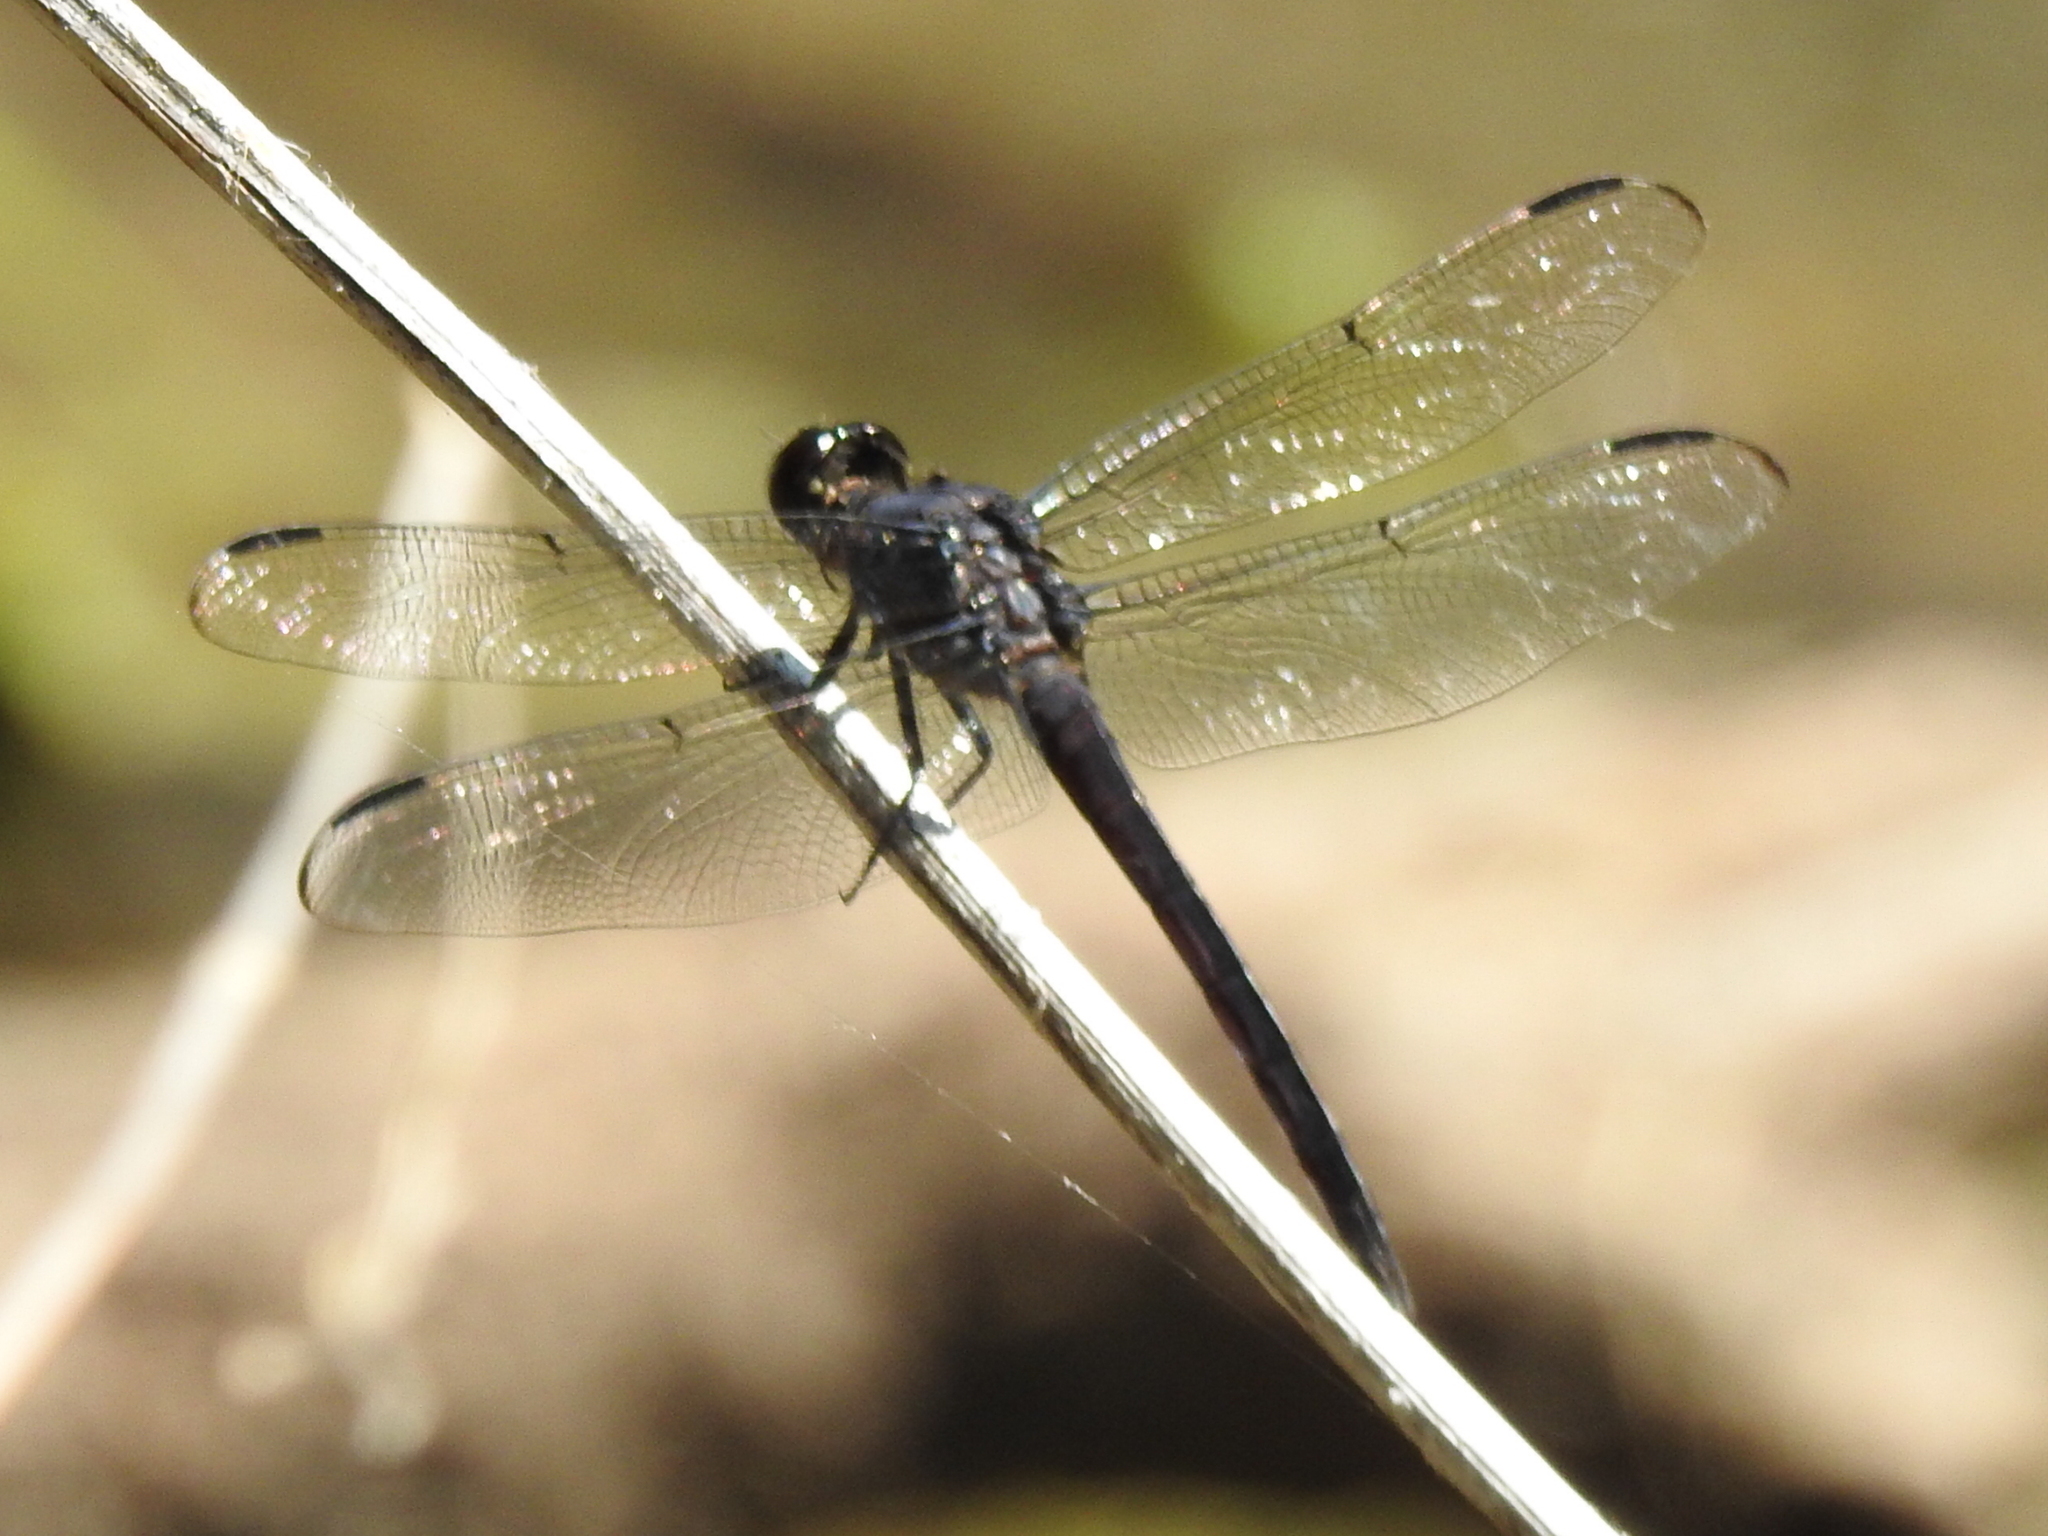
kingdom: Animalia
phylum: Arthropoda
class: Insecta
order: Odonata
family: Libellulidae
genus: Libellula
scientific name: Libellula incesta
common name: Slaty skimmer
